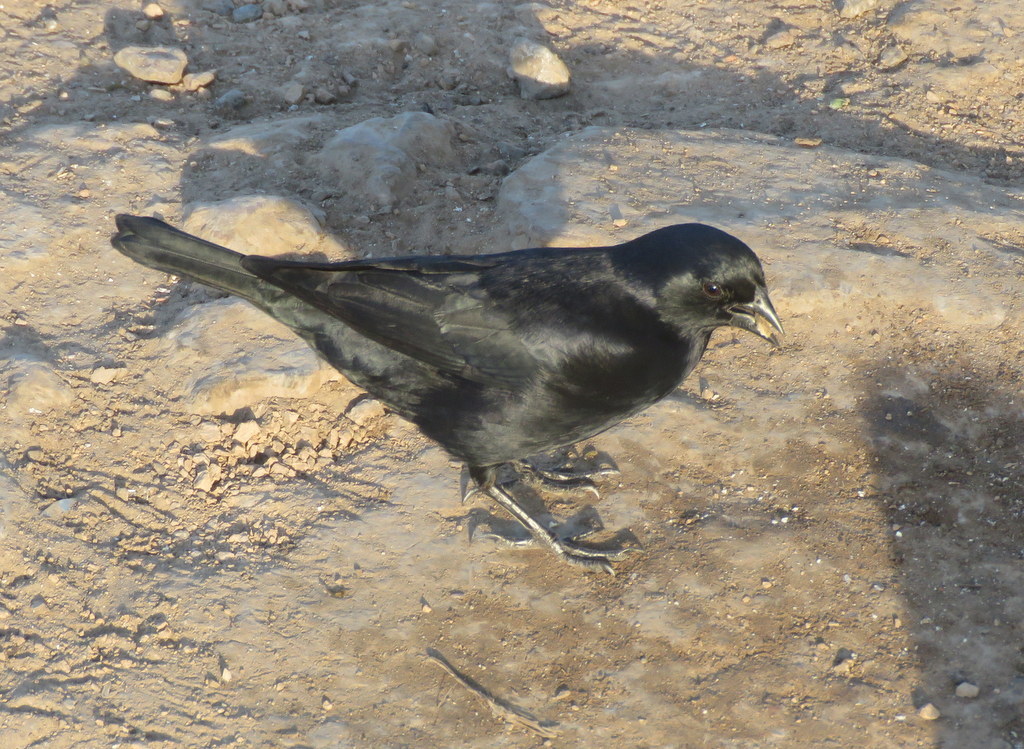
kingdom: Animalia
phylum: Chordata
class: Aves
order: Passeriformes
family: Icteridae
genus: Molothrus
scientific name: Molothrus rufoaxillaris
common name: Screaming cowbird
